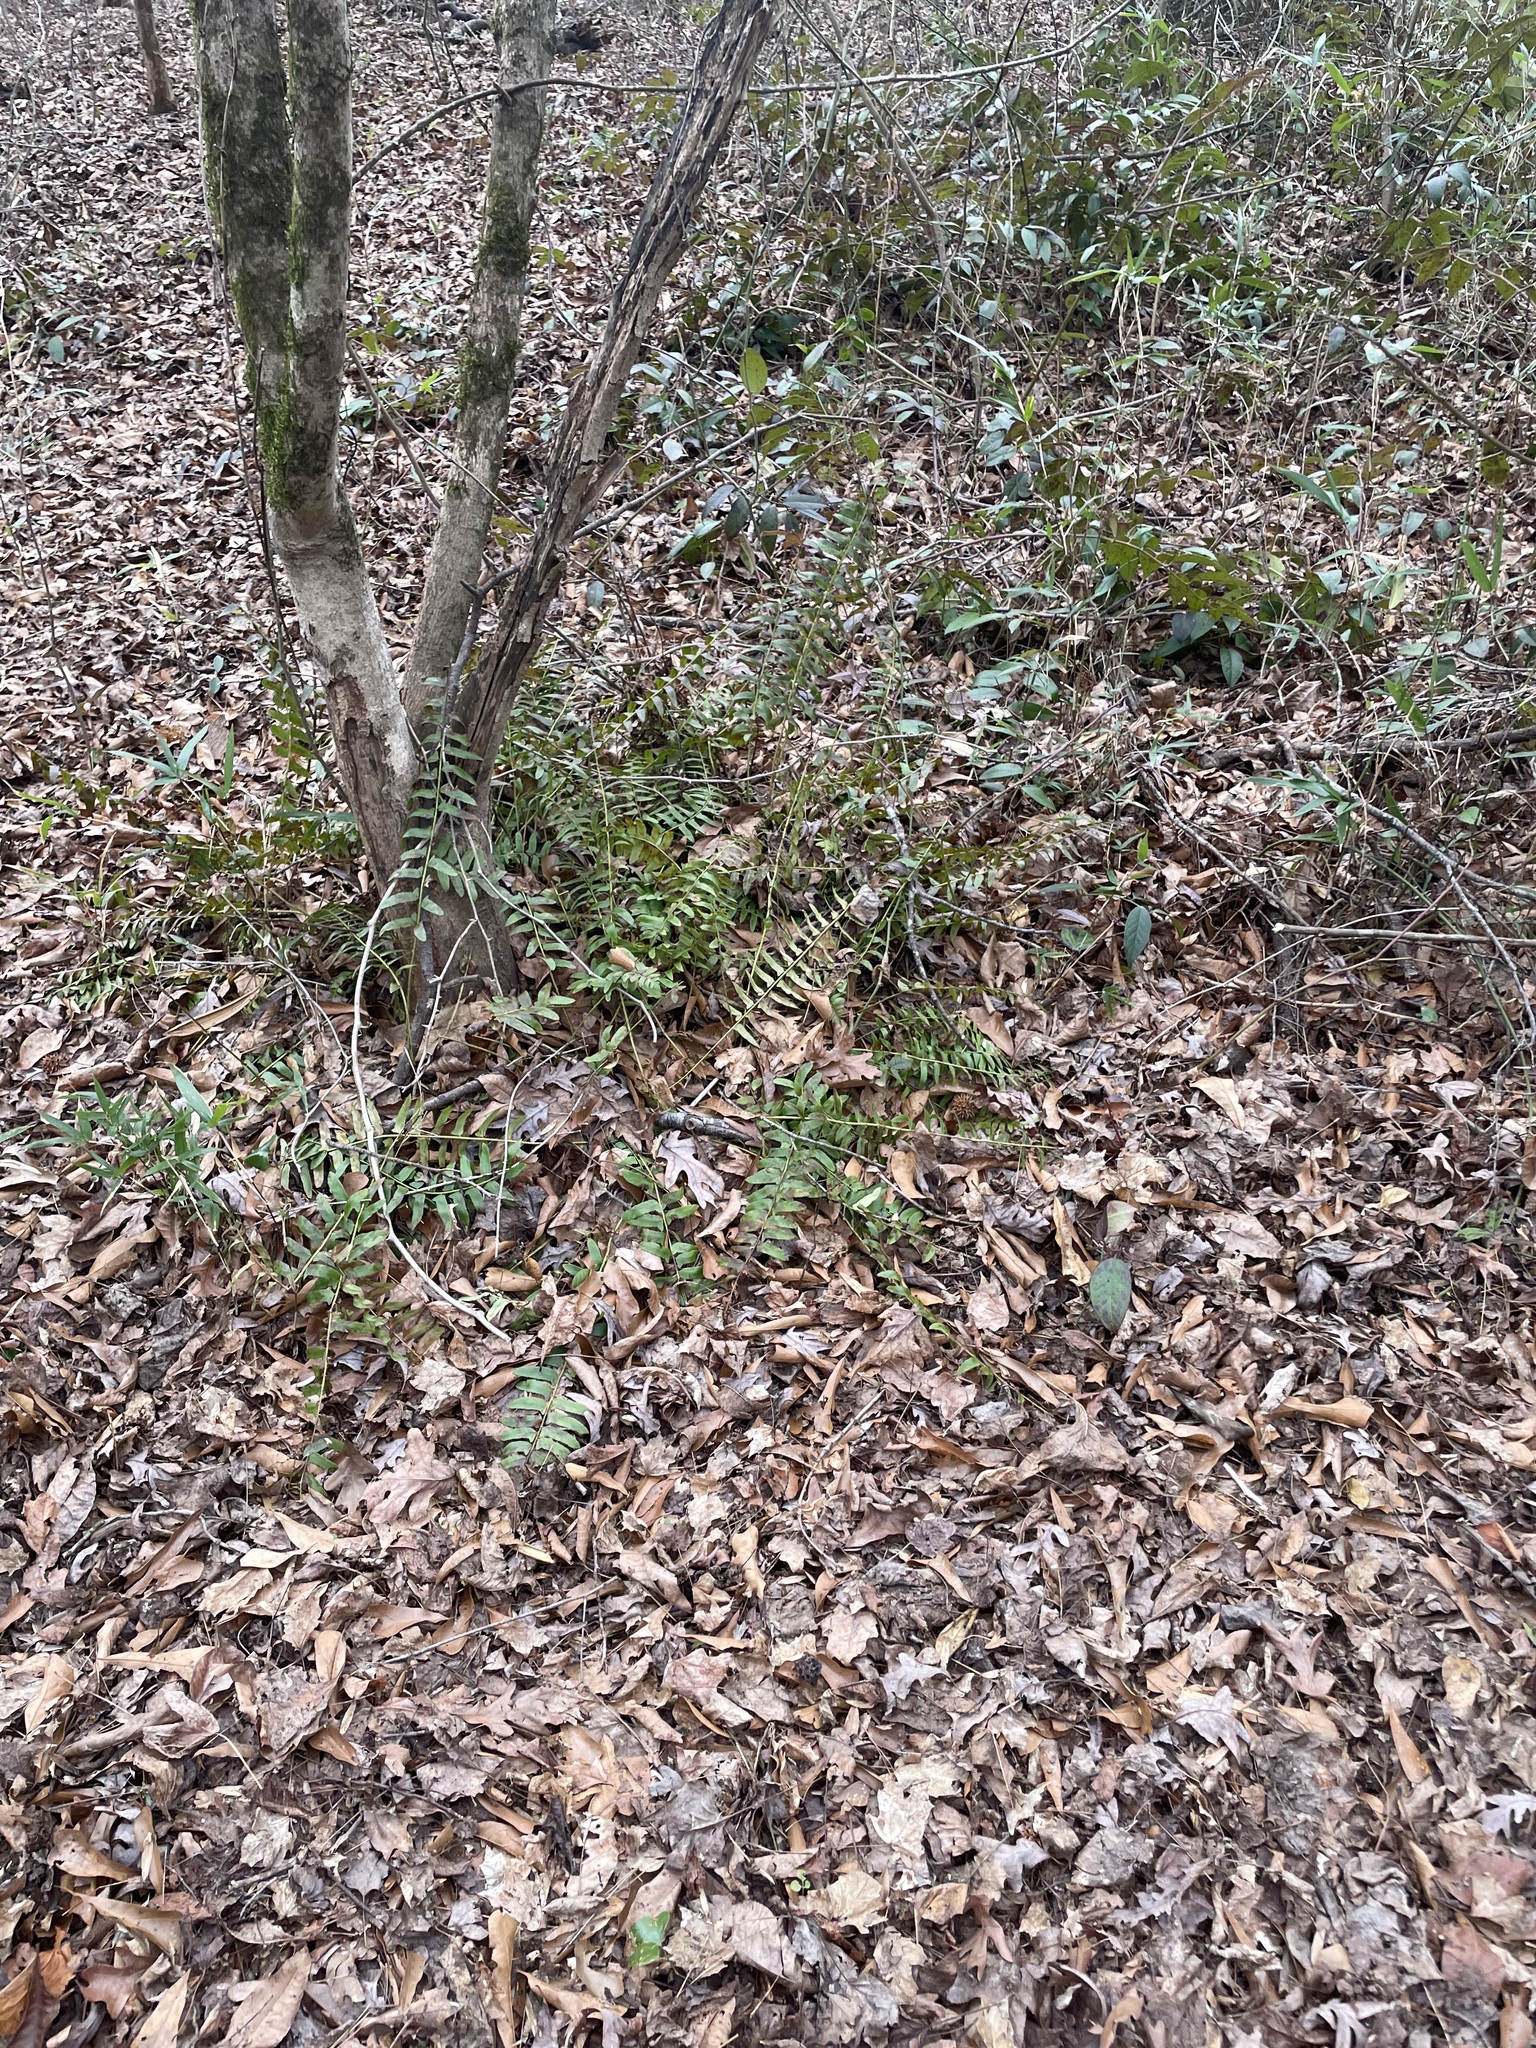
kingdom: Plantae
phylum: Tracheophyta
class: Polypodiopsida
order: Polypodiales
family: Dryopteridaceae
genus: Polystichum
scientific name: Polystichum acrostichoides
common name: Christmas fern
